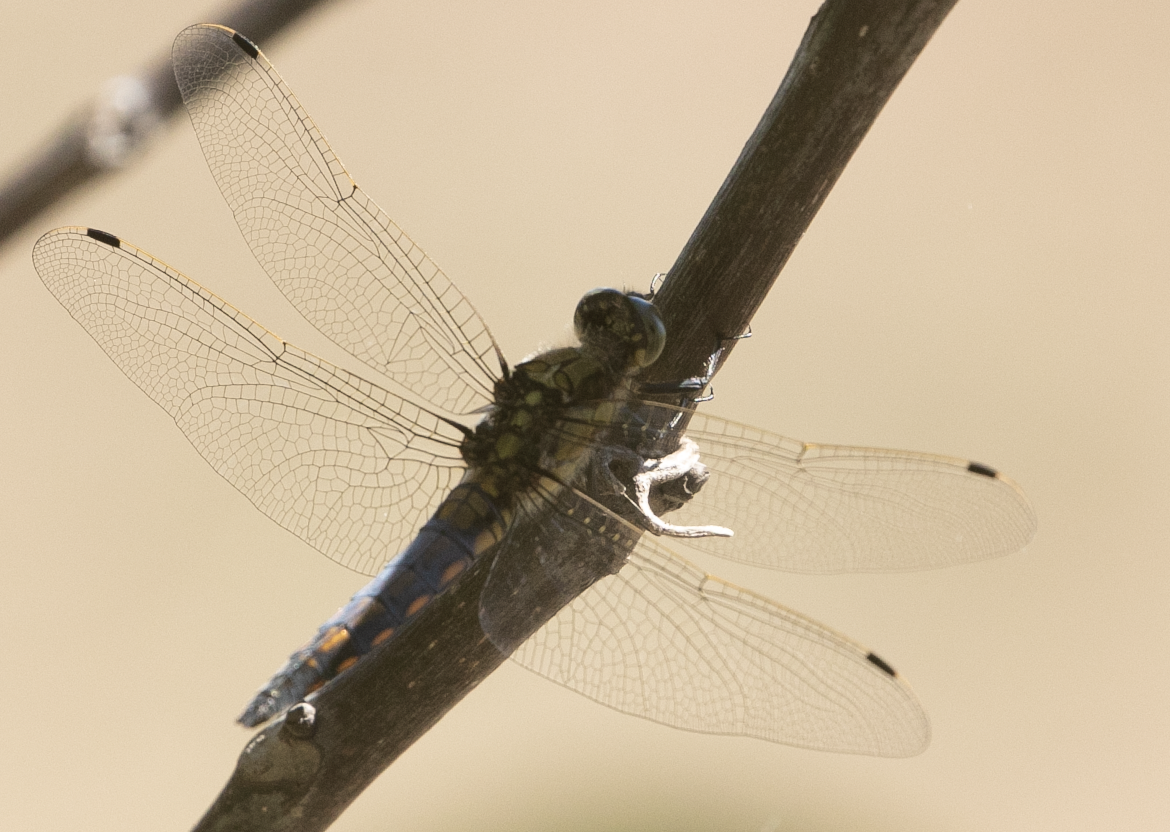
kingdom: Animalia
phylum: Arthropoda
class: Insecta
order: Odonata
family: Libellulidae
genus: Orthetrum
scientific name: Orthetrum cancellatum
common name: Black-tailed skimmer
